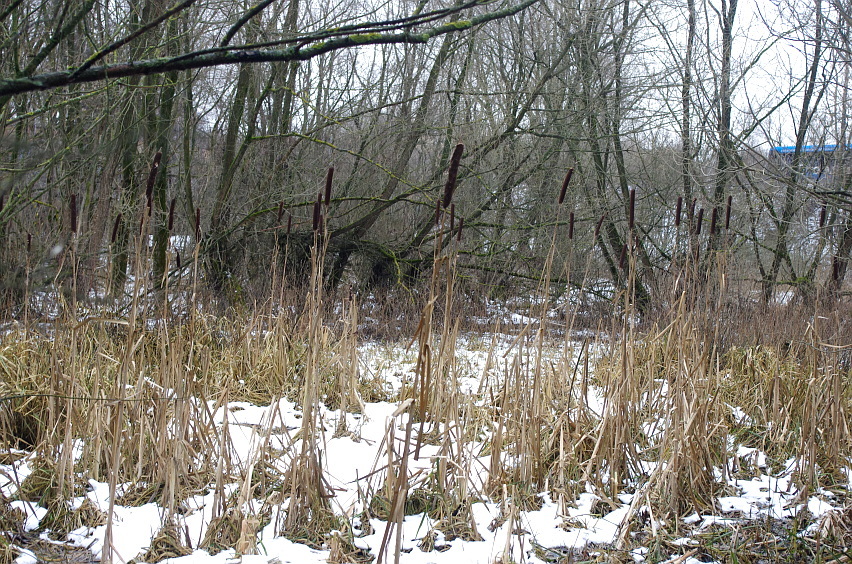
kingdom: Plantae
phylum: Tracheophyta
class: Liliopsida
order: Poales
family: Typhaceae
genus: Typha
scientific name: Typha latifolia
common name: Broadleaf cattail
